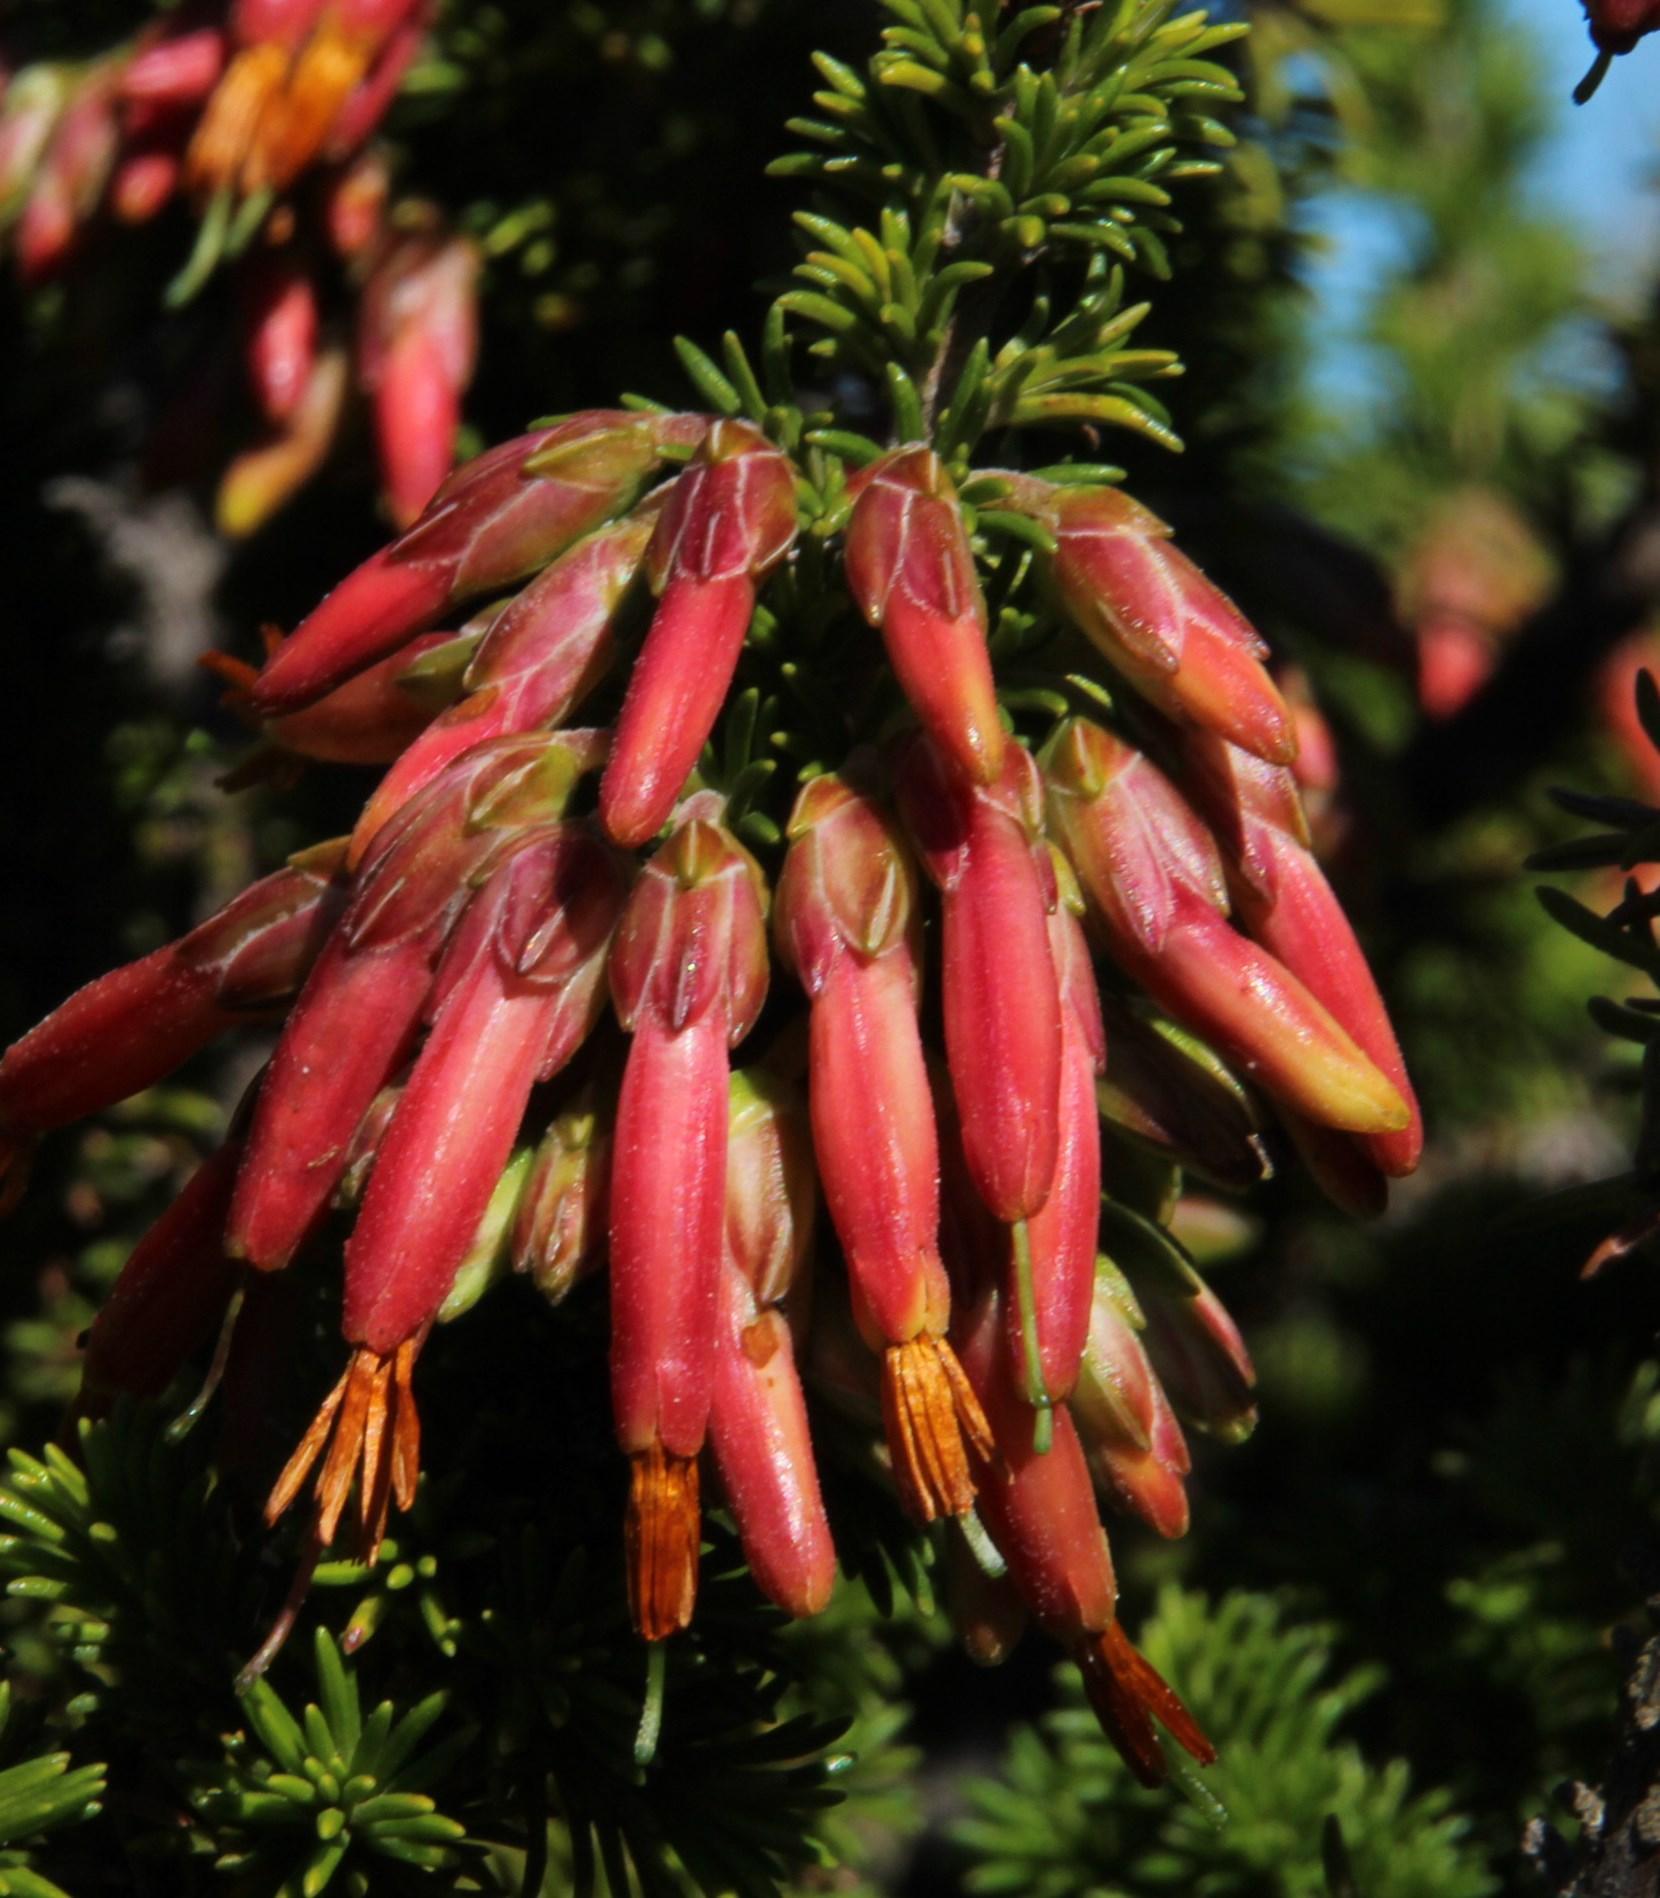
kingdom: Plantae
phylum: Tracheophyta
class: Magnoliopsida
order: Ericales
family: Ericaceae
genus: Erica
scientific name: Erica coccinea
